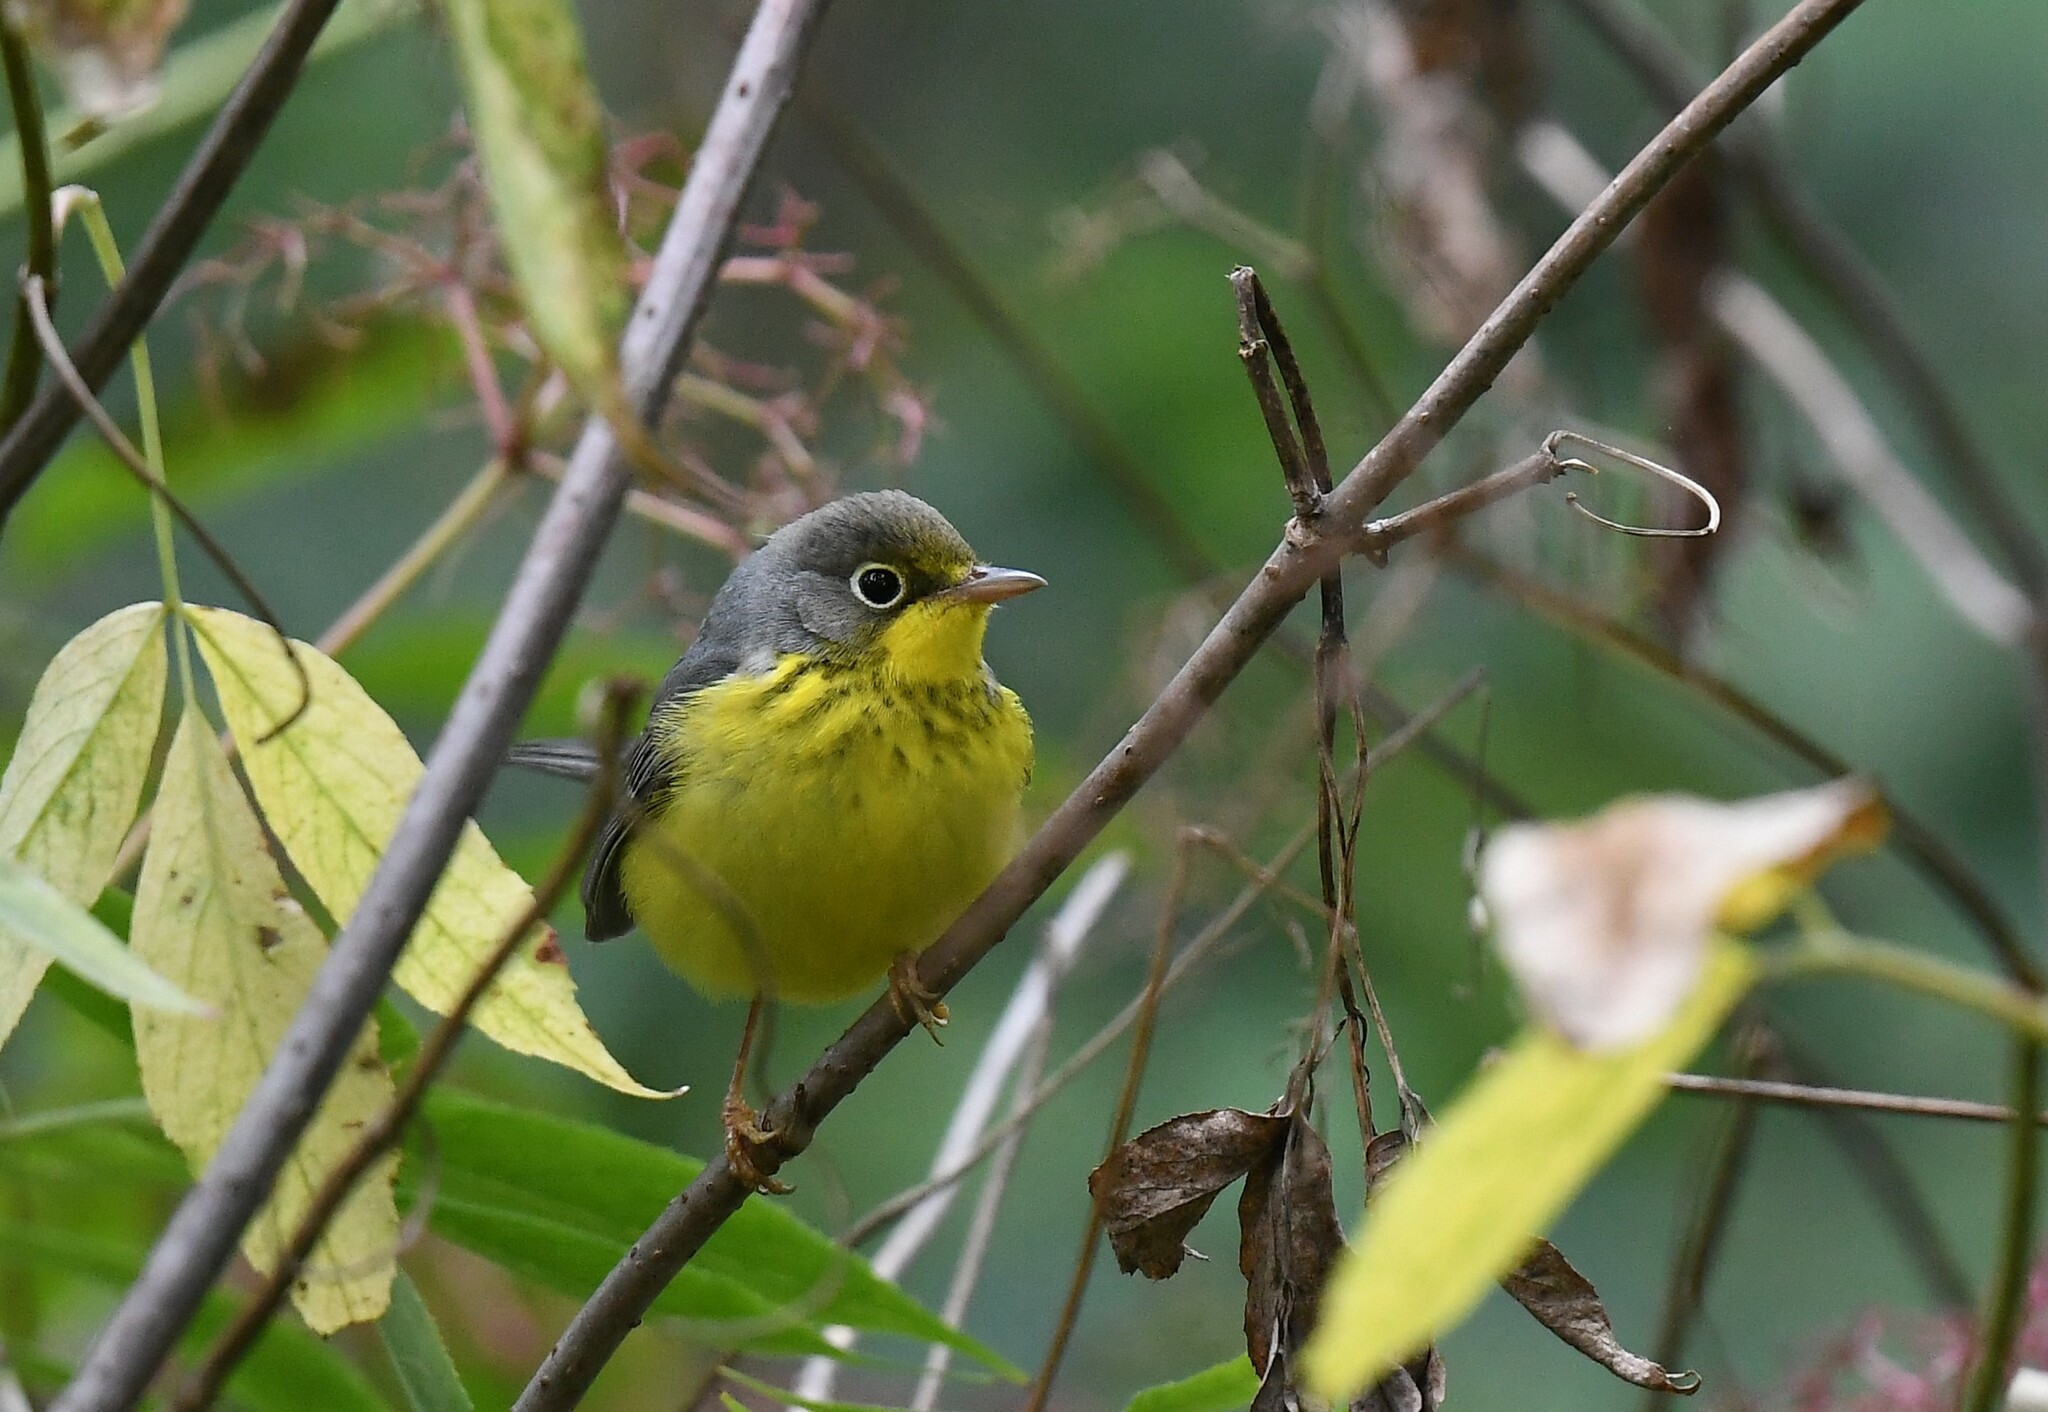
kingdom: Animalia
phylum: Chordata
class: Aves
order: Passeriformes
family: Parulidae
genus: Cardellina
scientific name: Cardellina canadensis
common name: Canada warbler
